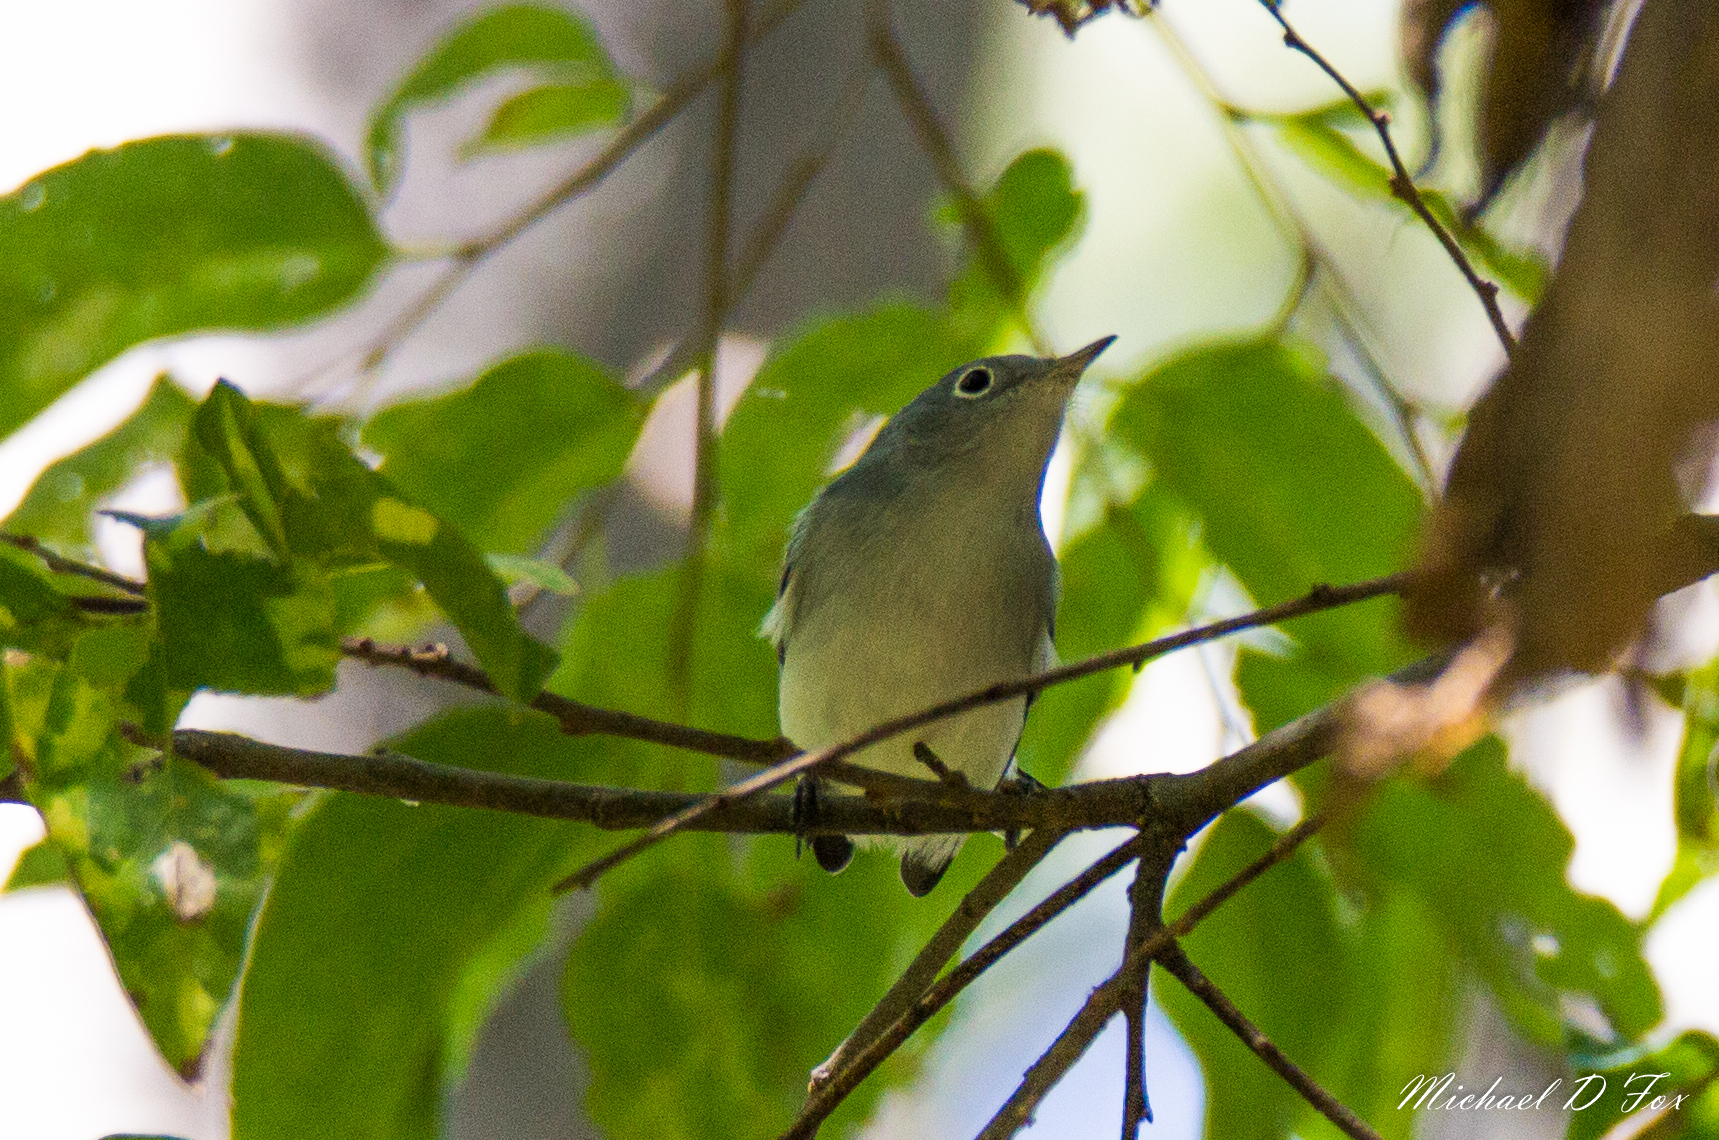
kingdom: Animalia
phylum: Chordata
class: Aves
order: Passeriformes
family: Polioptilidae
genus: Polioptila
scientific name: Polioptila caerulea
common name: Blue-gray gnatcatcher
